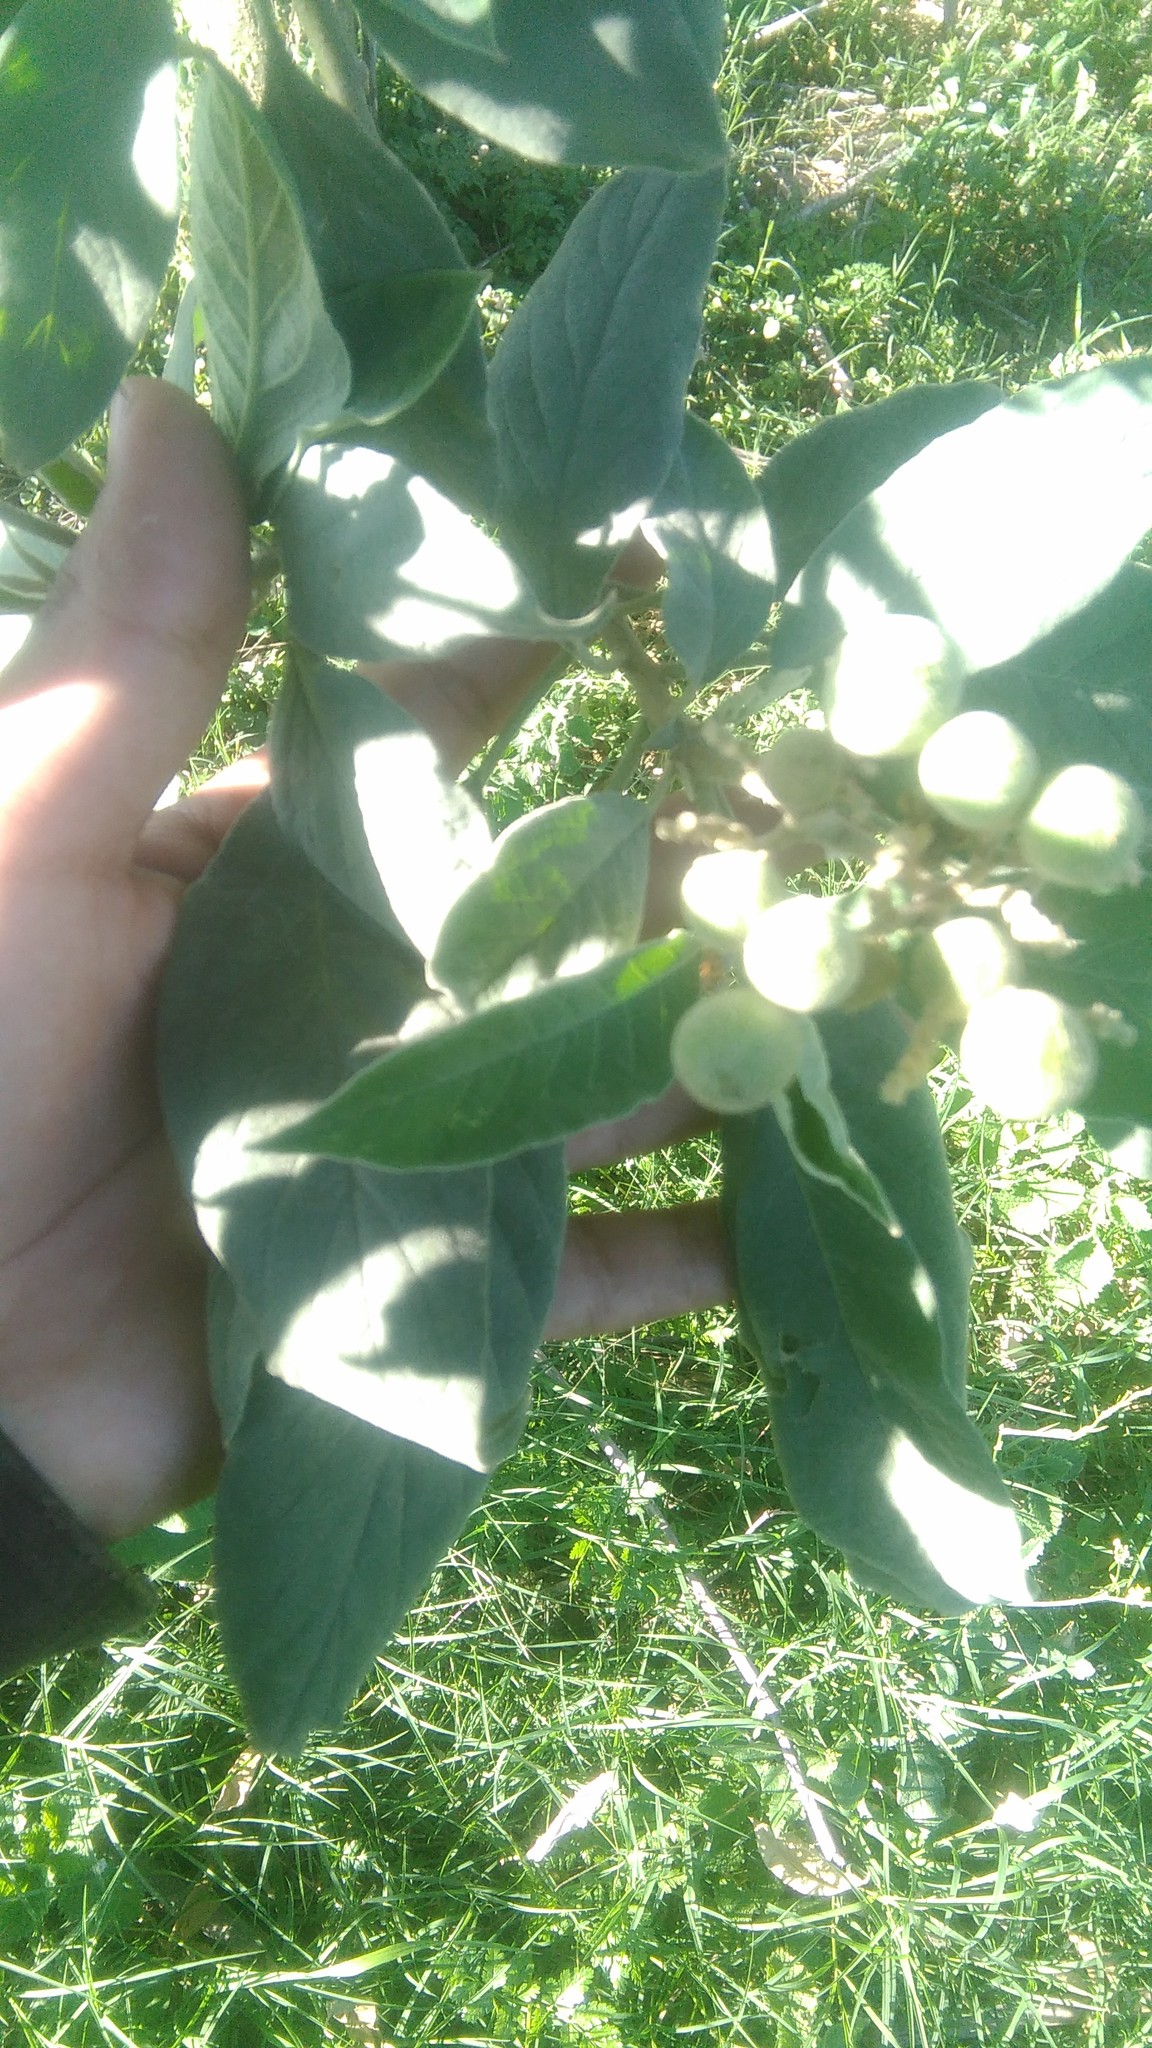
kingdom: Plantae
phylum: Tracheophyta
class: Magnoliopsida
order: Solanales
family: Solanaceae
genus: Solanum
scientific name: Solanum granulosoleprosum
